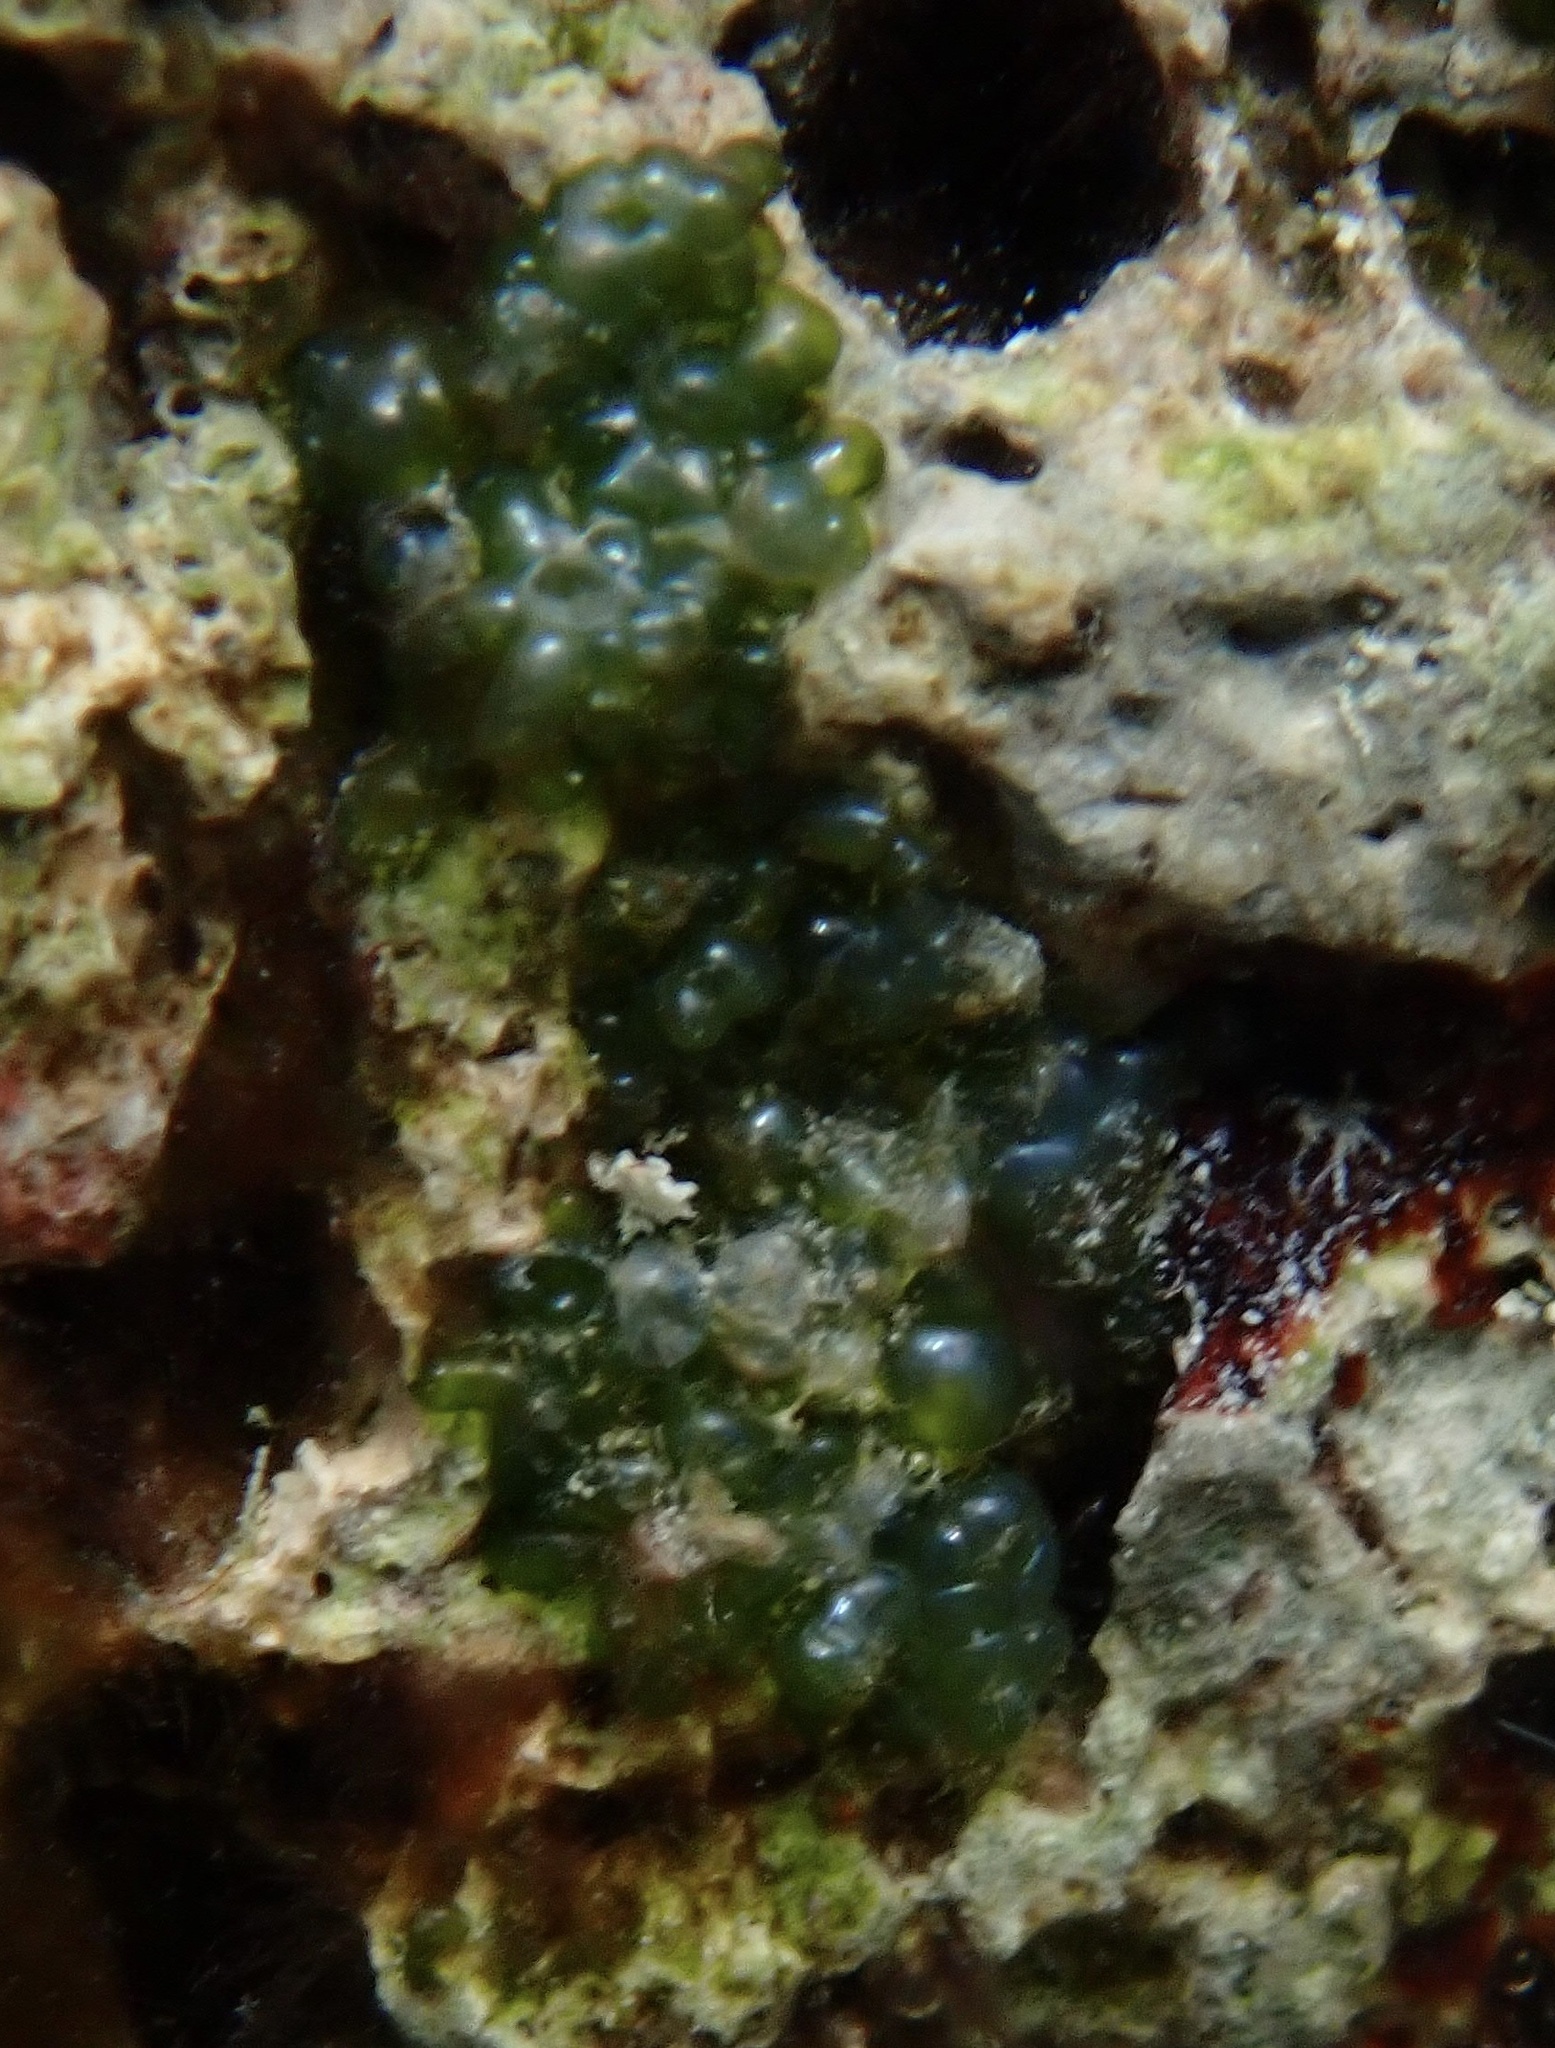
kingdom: Plantae
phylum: Chlorophyta
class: Ulvophyceae
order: Siphonocladales
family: Valoniaceae
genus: Valonia
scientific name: Valonia macrophysa
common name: Elongated sea pearls
